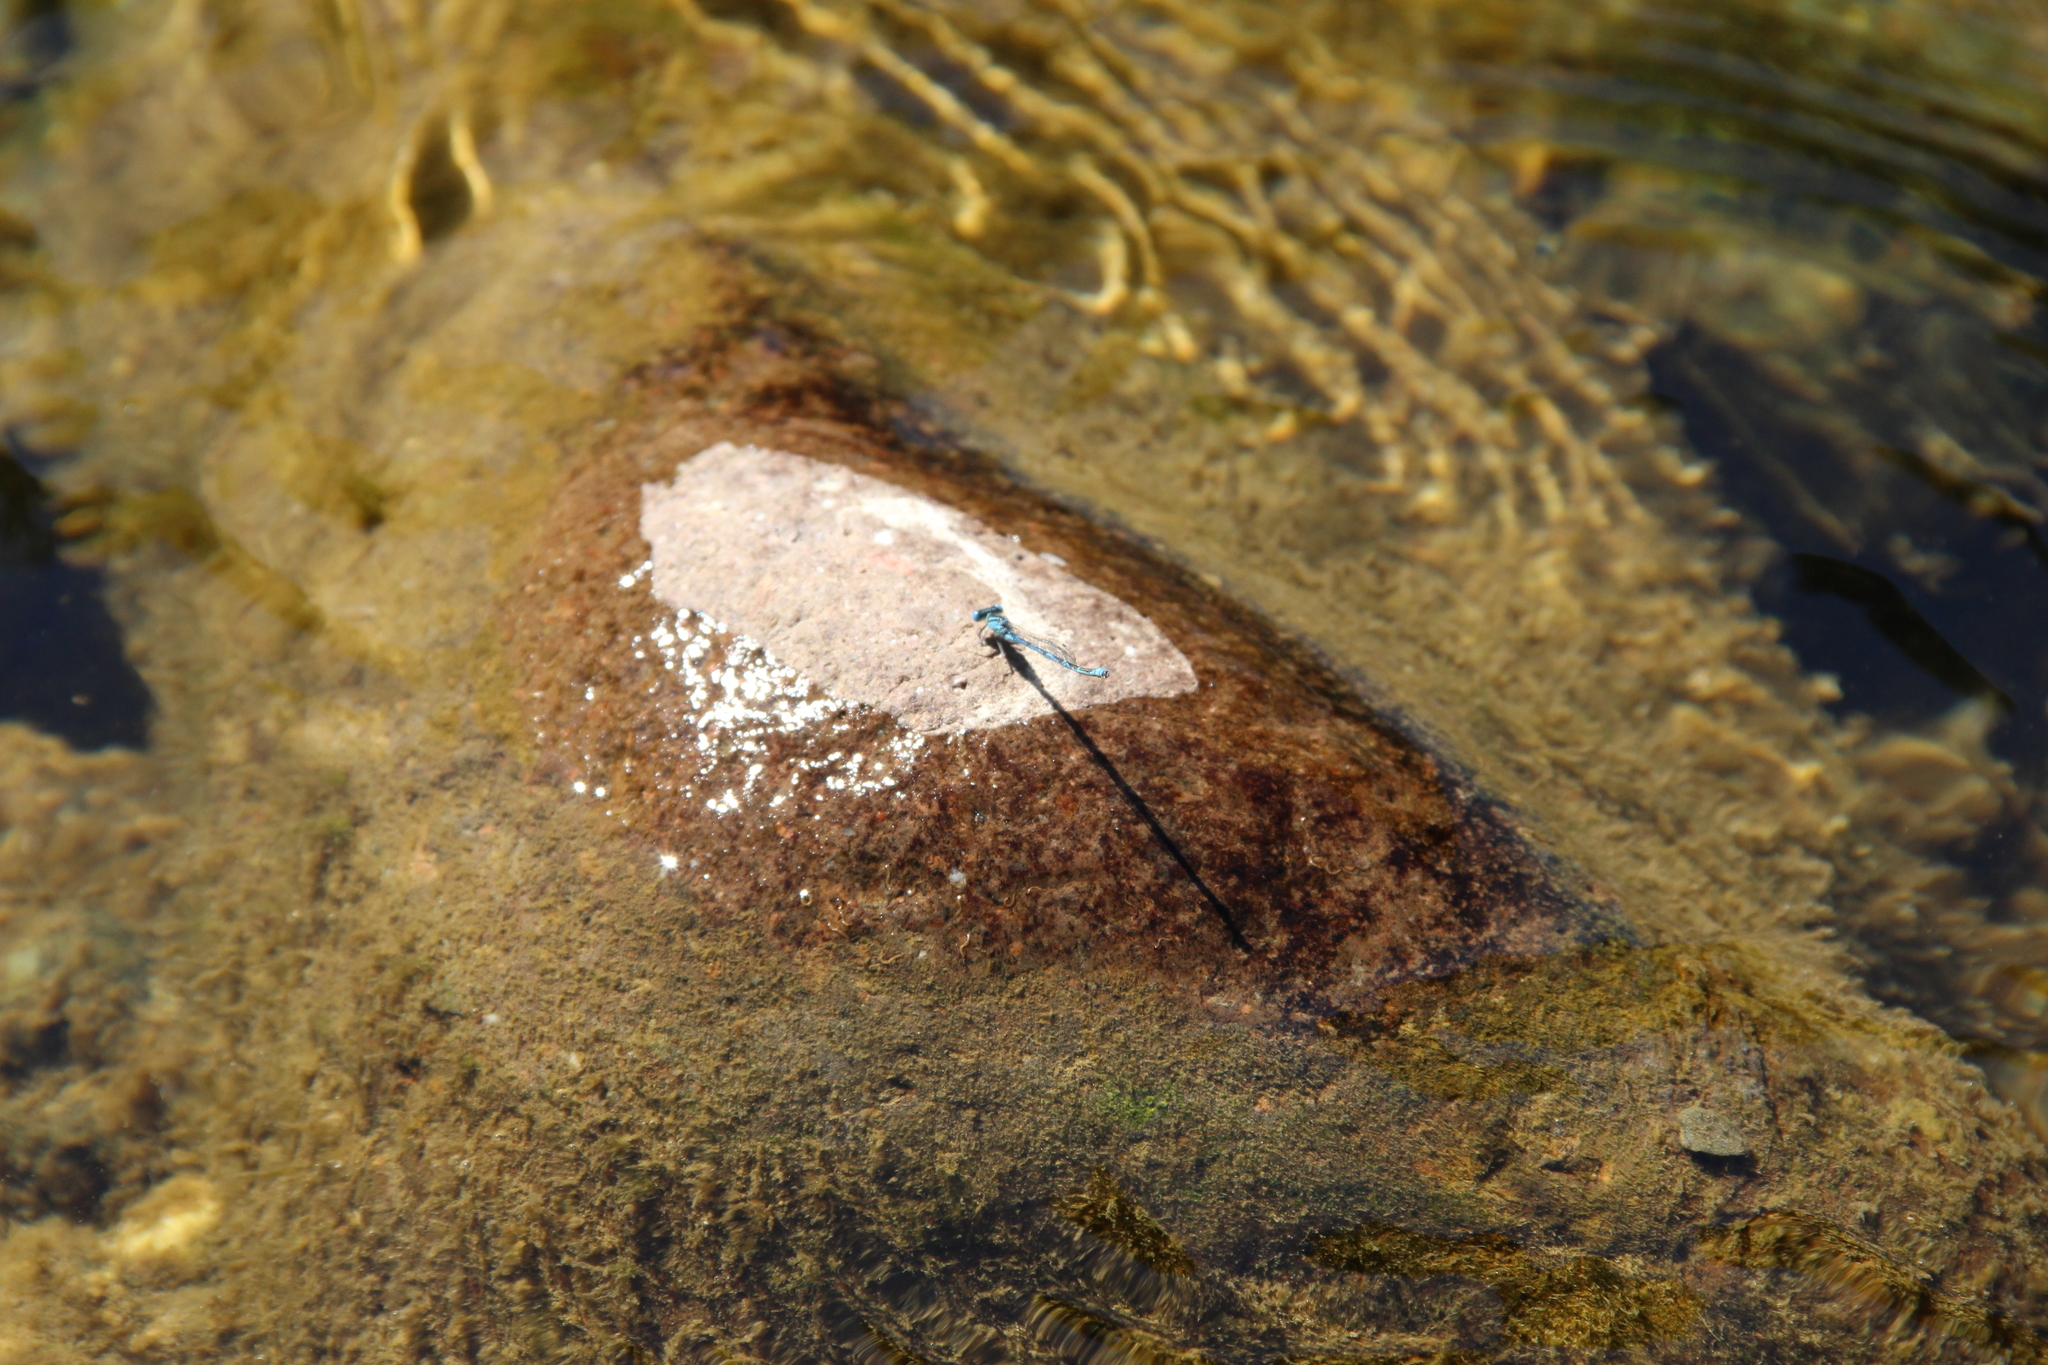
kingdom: Animalia
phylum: Arthropoda
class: Insecta
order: Odonata
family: Coenagrionidae
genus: Erythromma
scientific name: Erythromma lindenii
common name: Blue-eye
